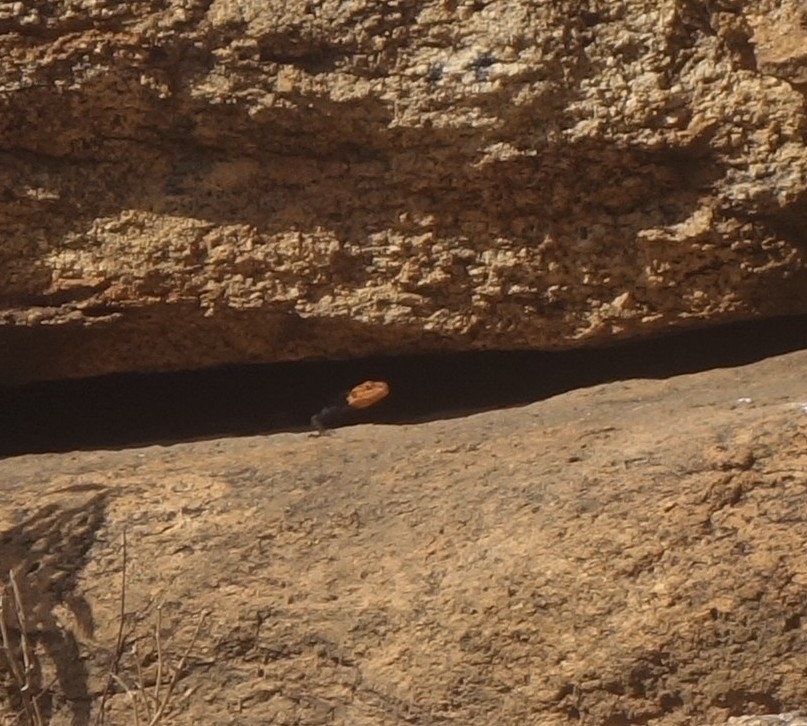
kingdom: Animalia
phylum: Chordata
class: Squamata
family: Agamidae
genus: Agama
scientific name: Agama planiceps
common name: Namib rock agama
